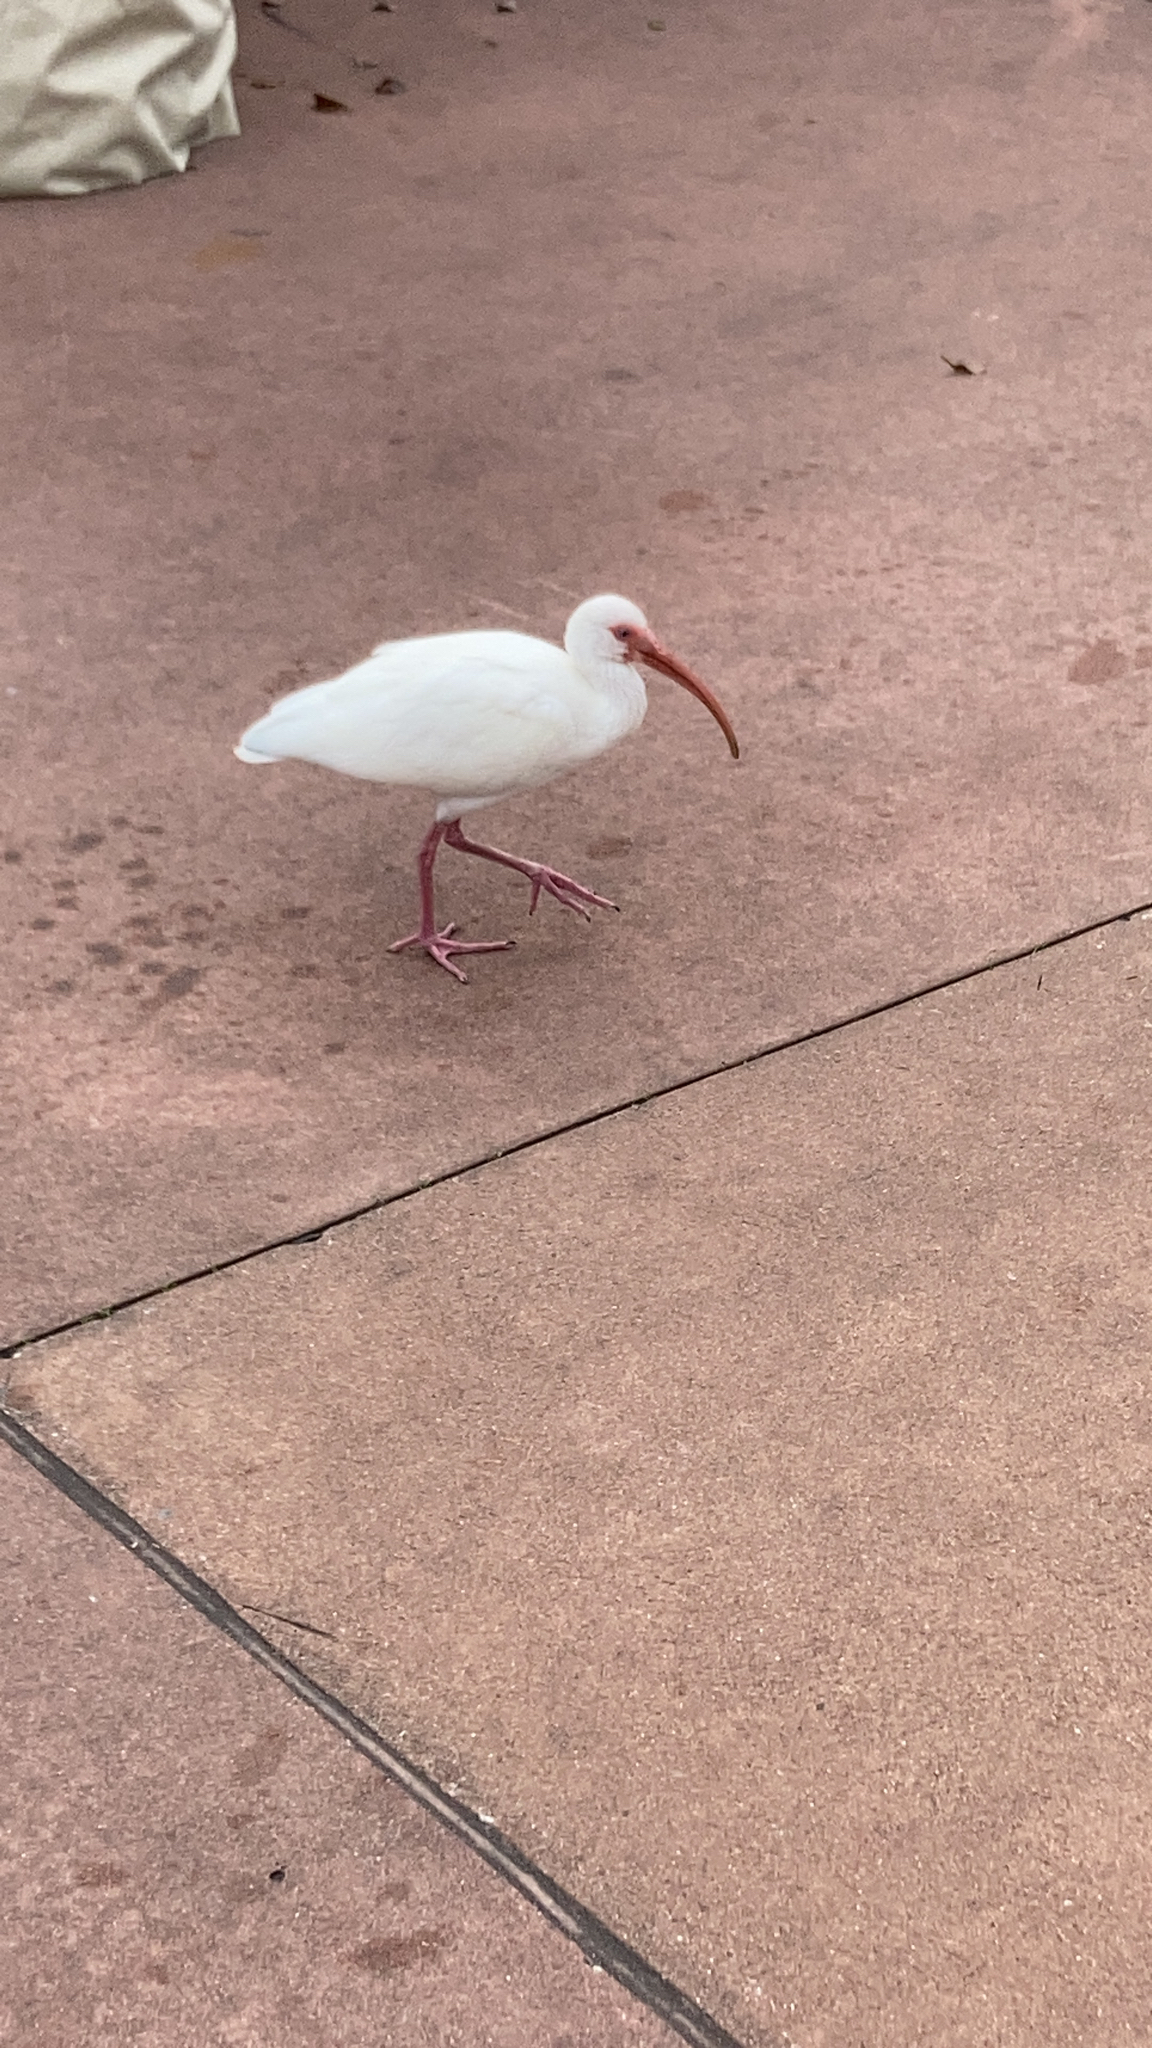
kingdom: Animalia
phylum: Chordata
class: Aves
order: Pelecaniformes
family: Threskiornithidae
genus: Eudocimus
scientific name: Eudocimus albus
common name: White ibis
